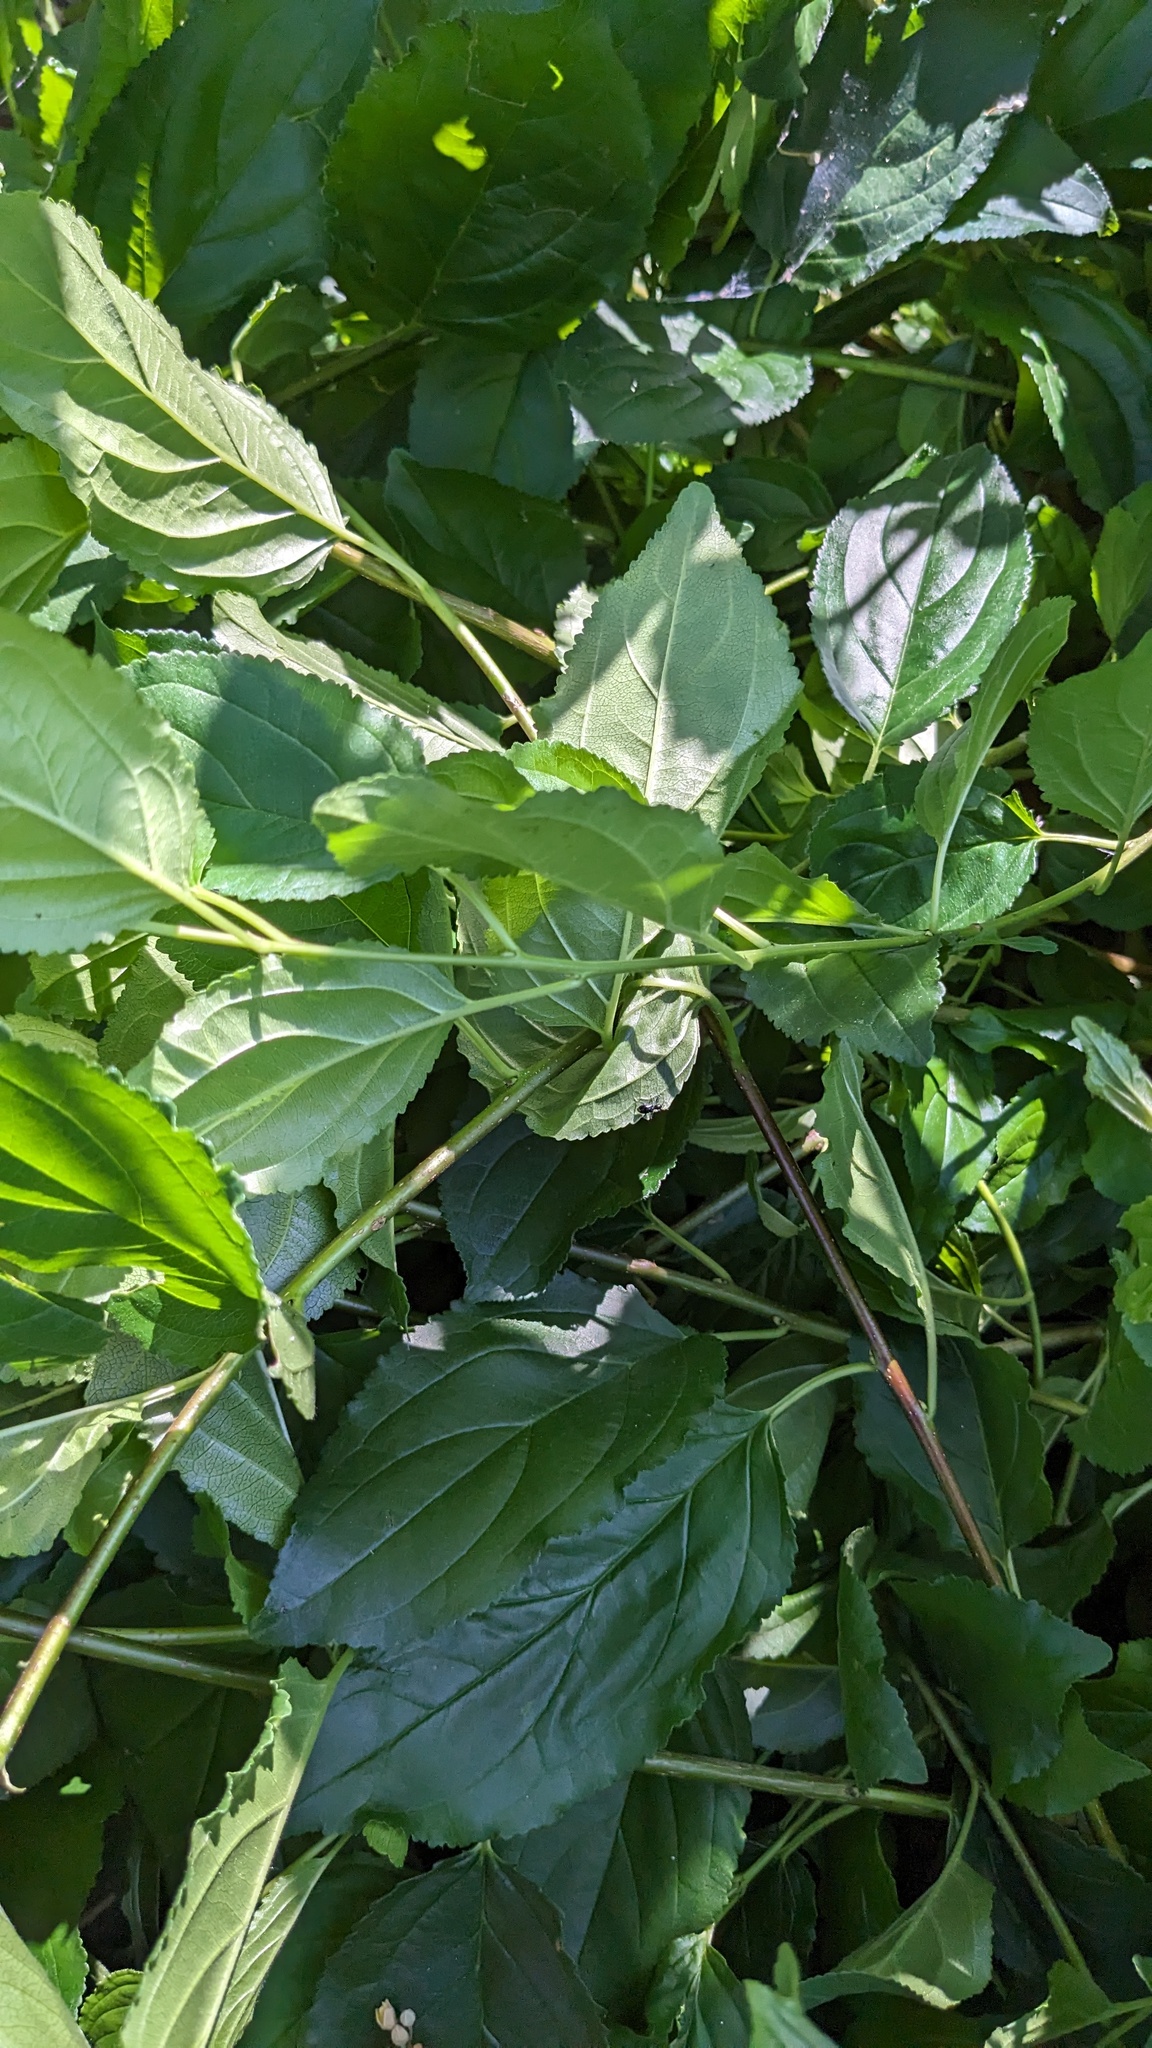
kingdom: Plantae
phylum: Tracheophyta
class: Magnoliopsida
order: Rosales
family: Rhamnaceae
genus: Rhamnus
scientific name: Rhamnus cathartica
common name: Common buckthorn
